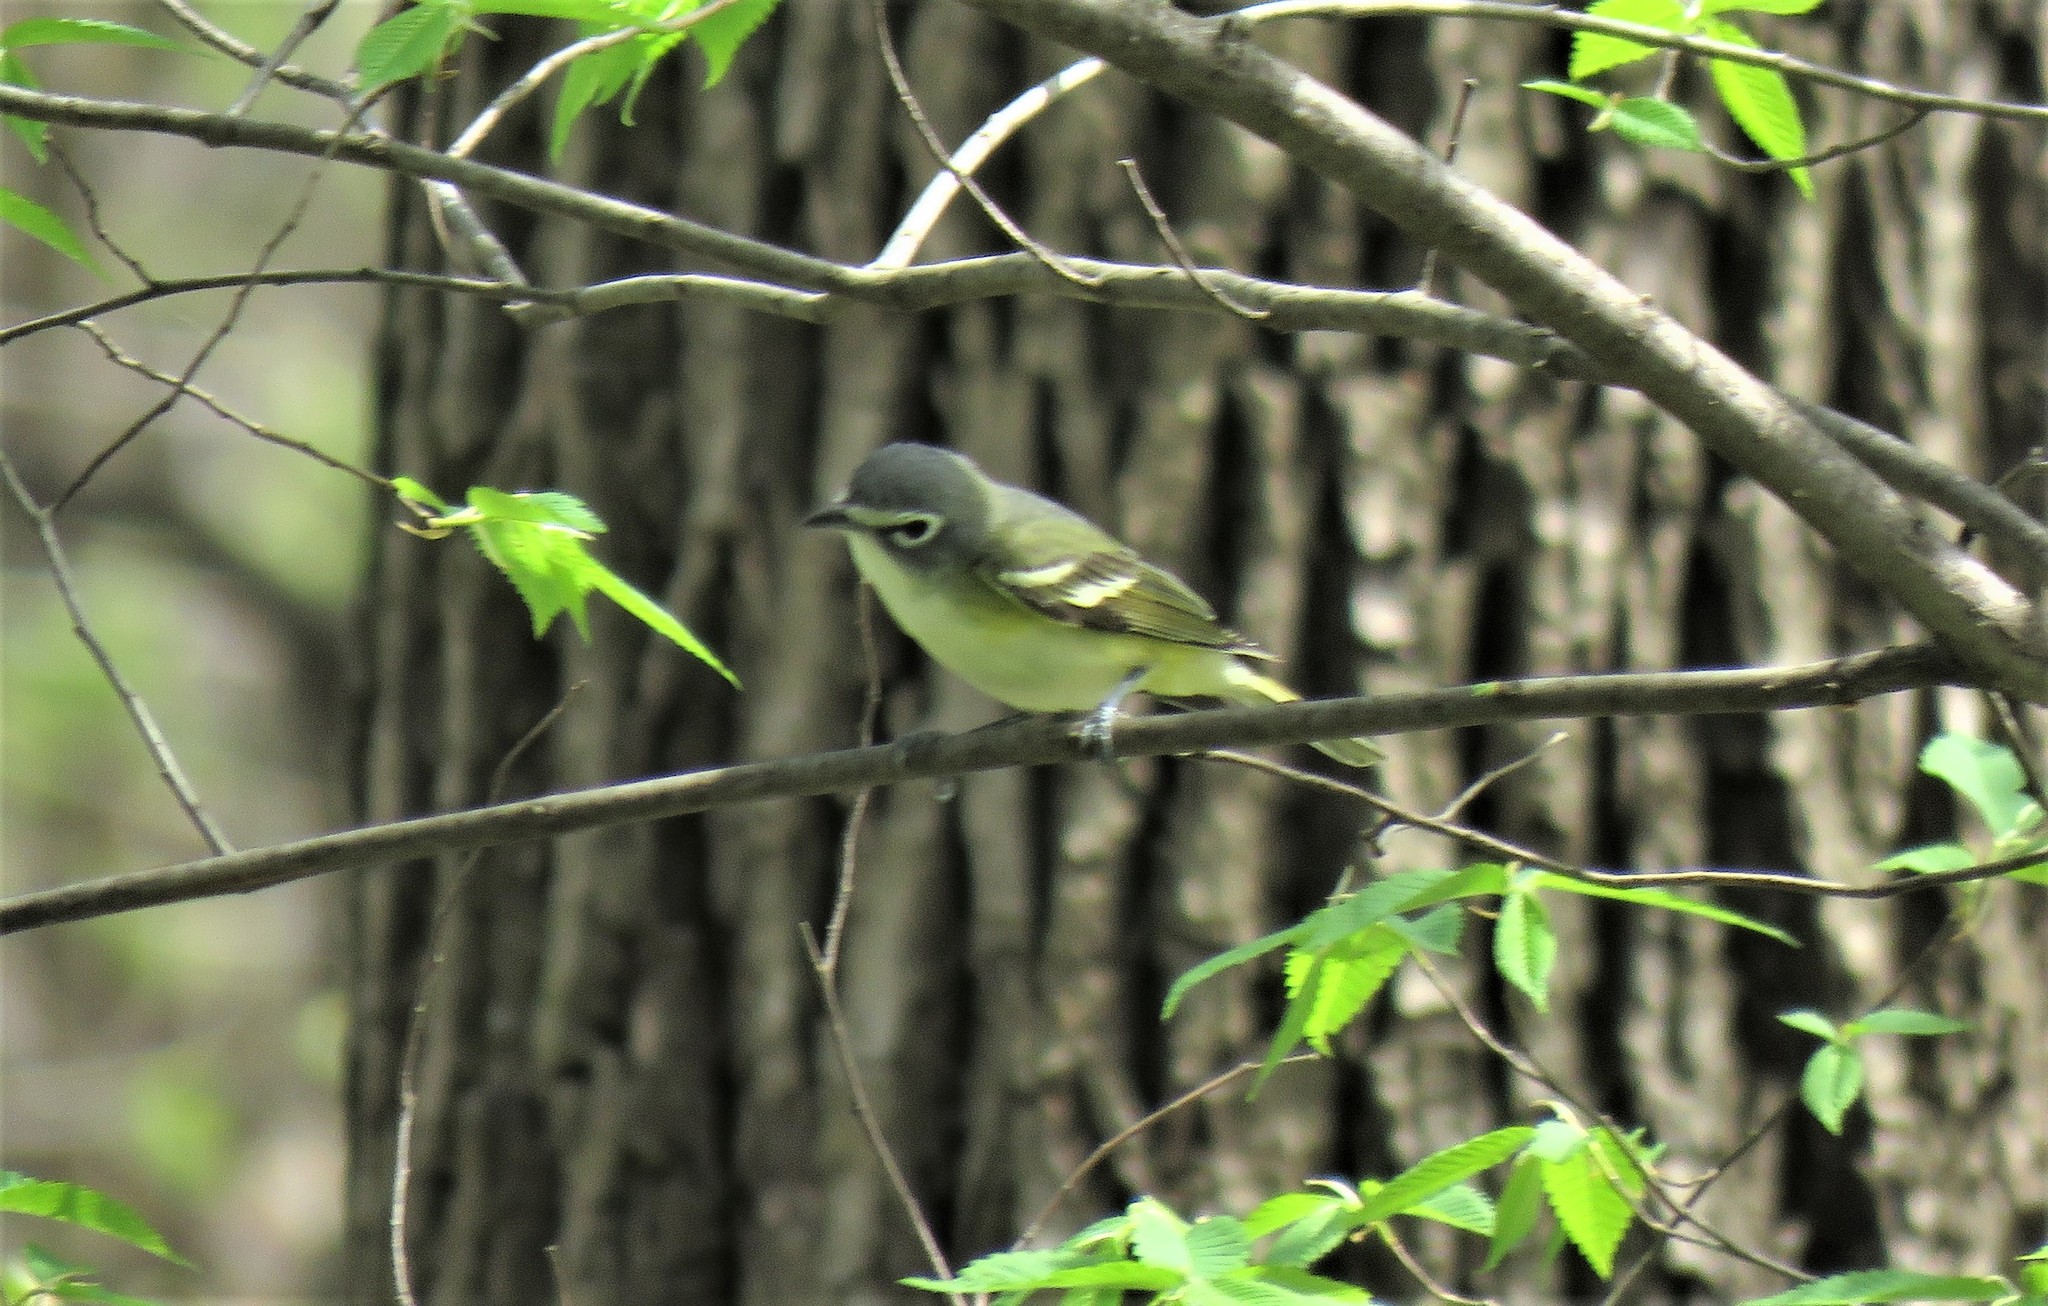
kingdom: Animalia
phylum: Chordata
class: Aves
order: Passeriformes
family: Vireonidae
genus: Vireo
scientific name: Vireo solitarius
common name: Blue-headed vireo
